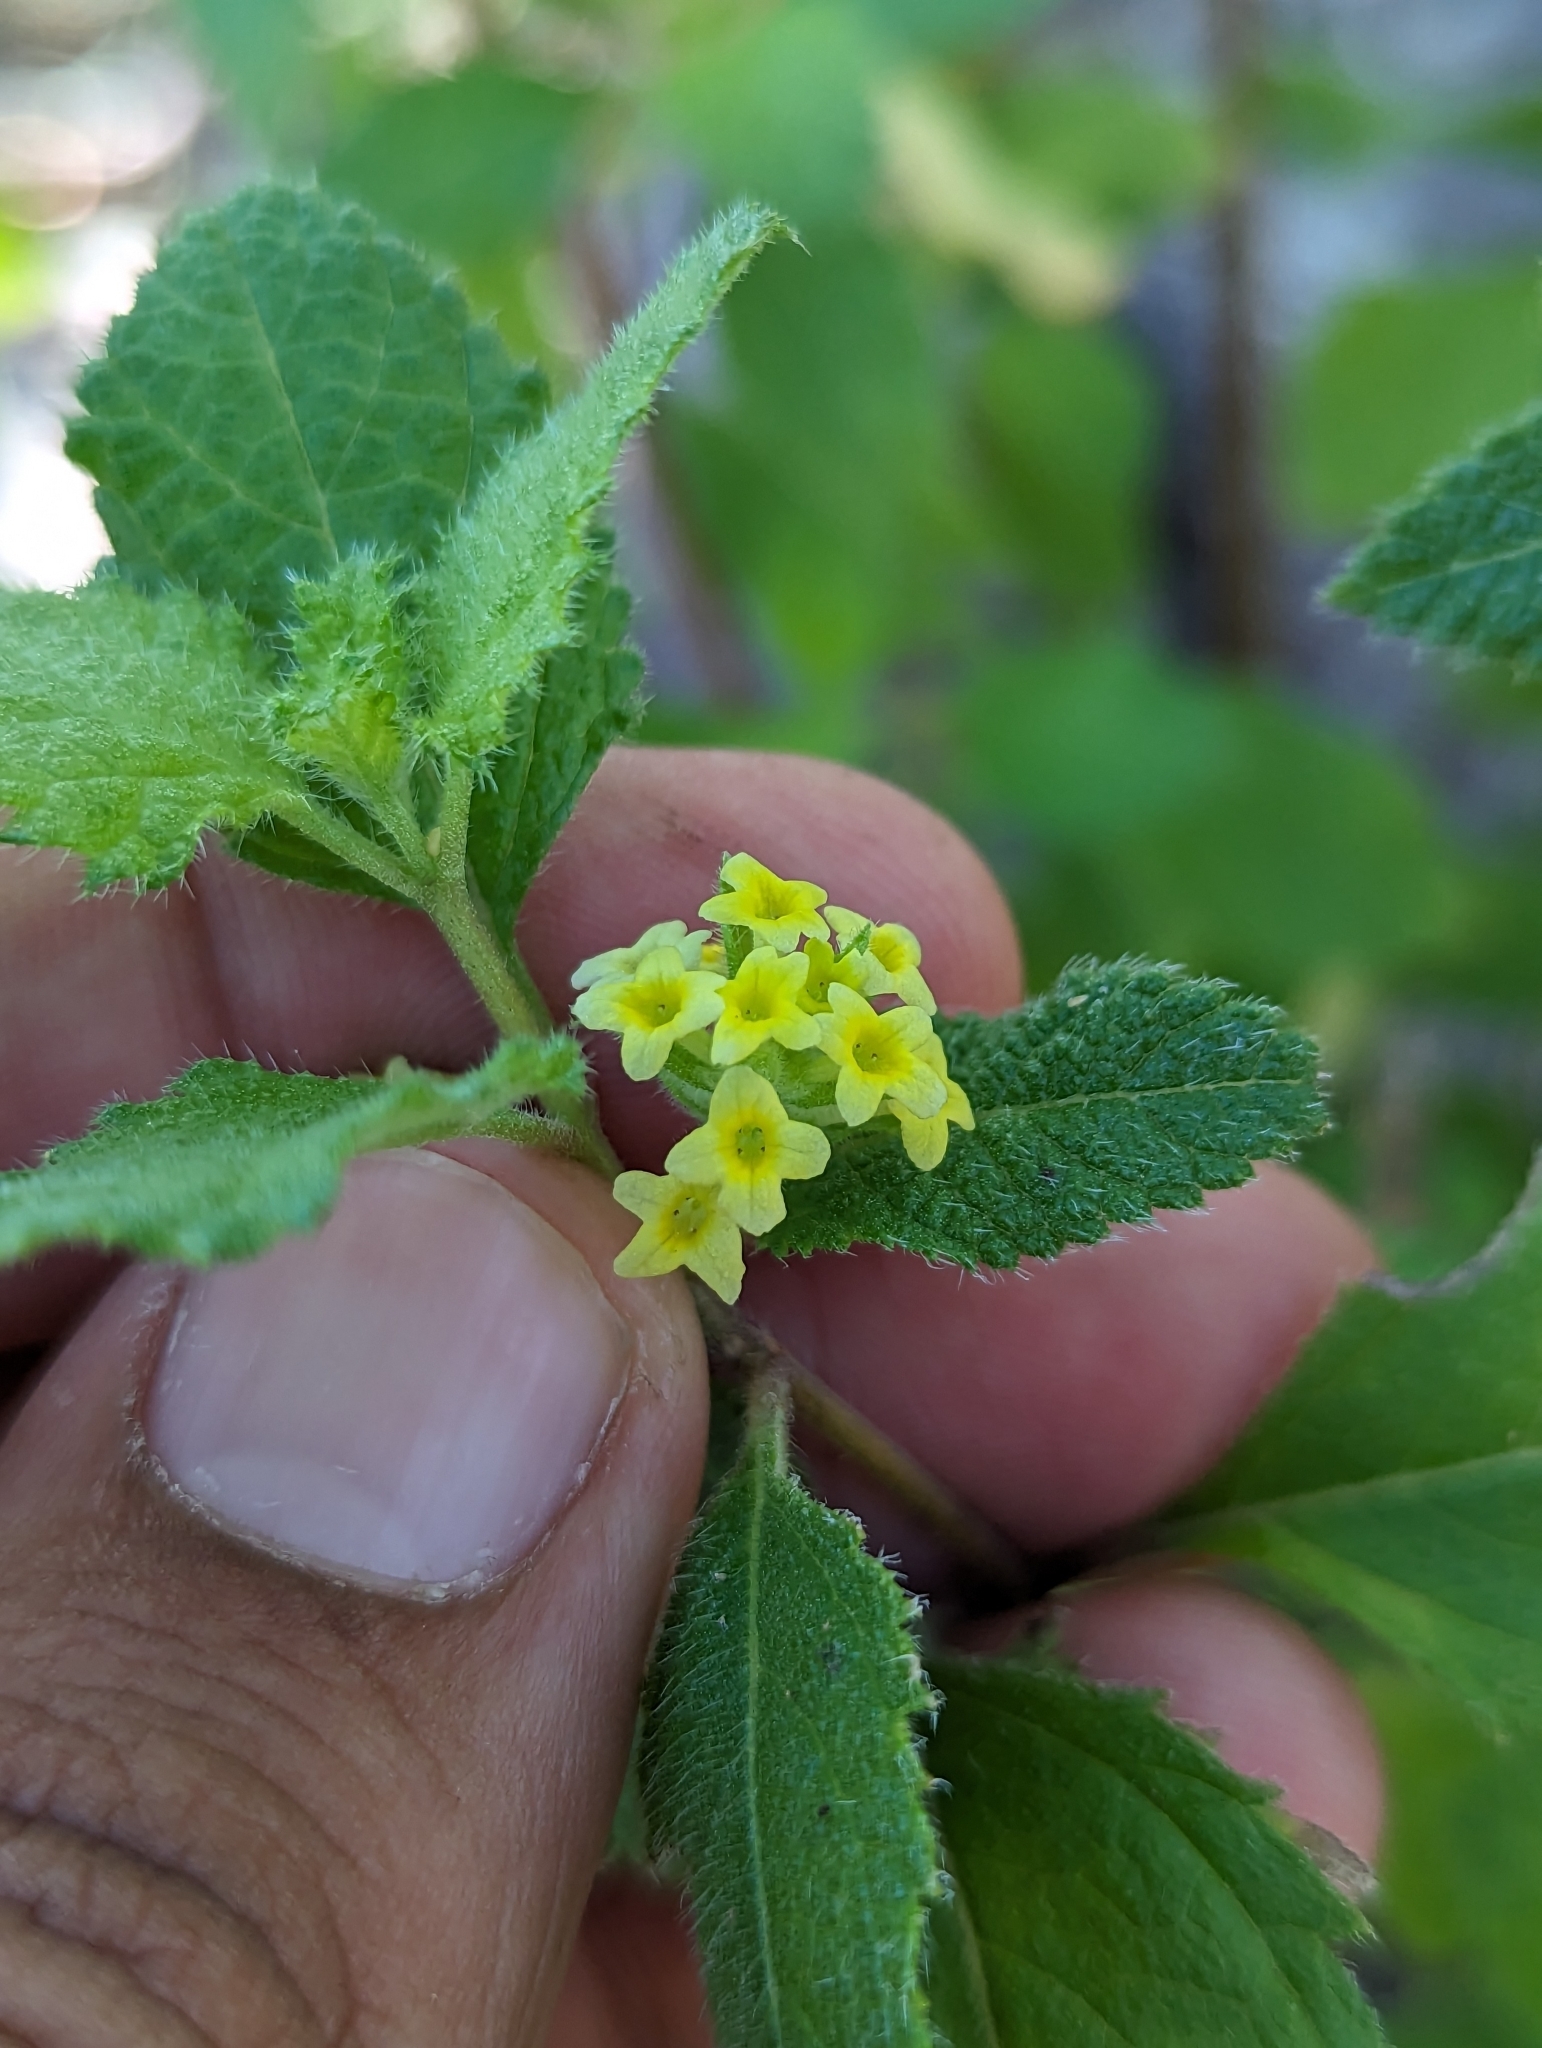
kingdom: Plantae
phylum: Tracheophyta
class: Magnoliopsida
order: Lamiales
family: Verbenaceae
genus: Aloysia
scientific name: Aloysia barbata
